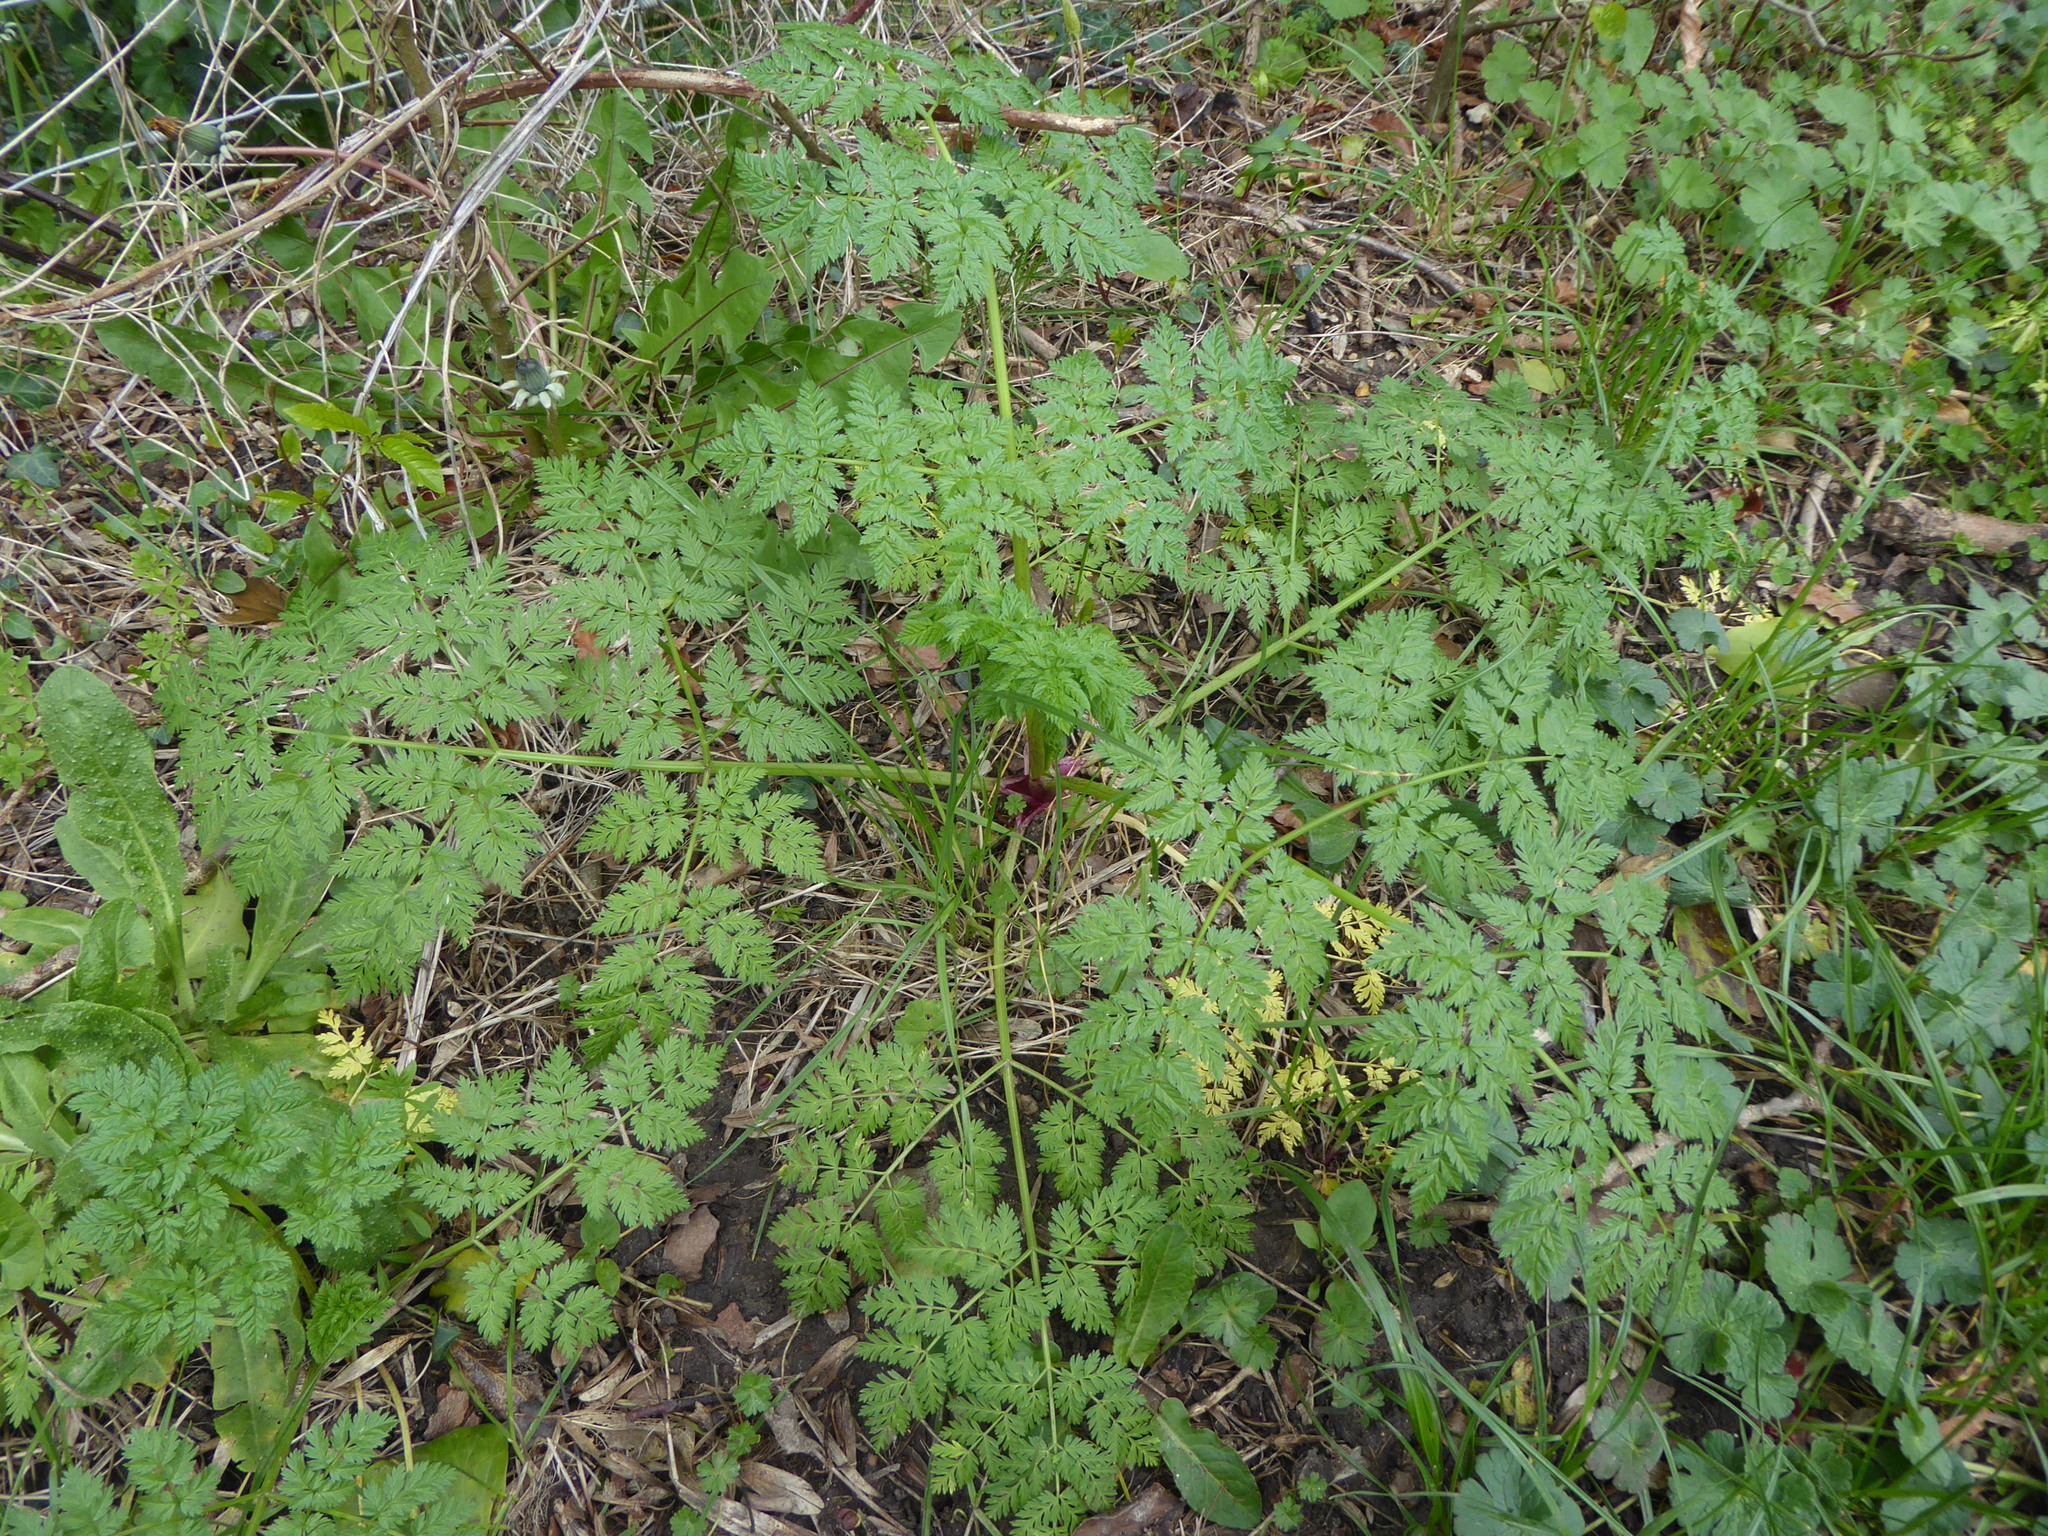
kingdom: Plantae
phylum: Tracheophyta
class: Magnoliopsida
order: Apiales
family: Apiaceae
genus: Conium
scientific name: Conium maculatum
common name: Hemlock
